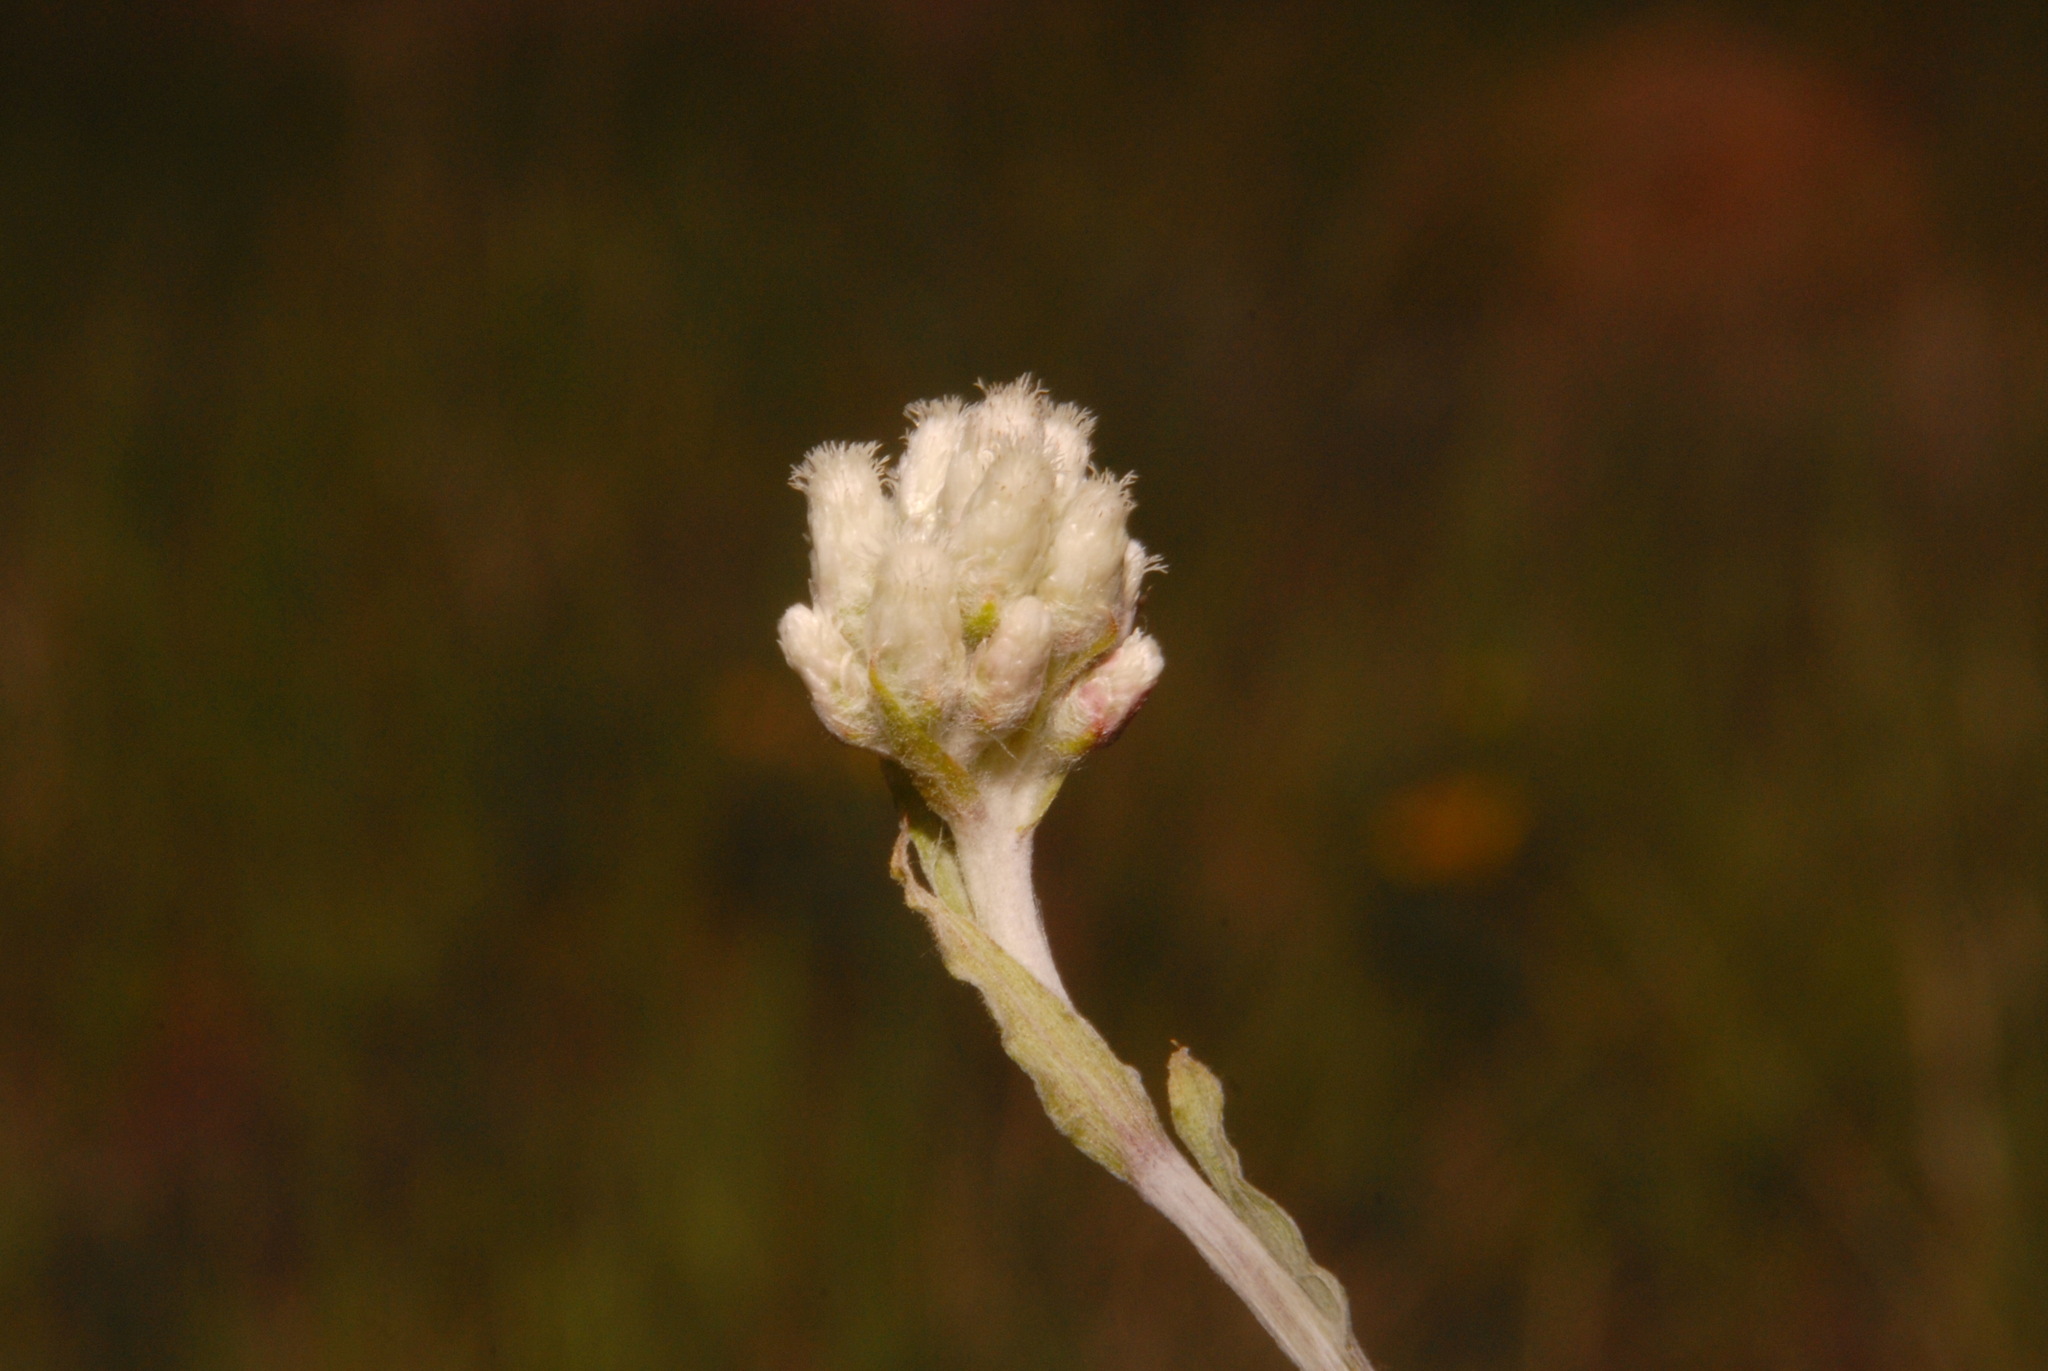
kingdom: Plantae
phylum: Tracheophyta
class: Magnoliopsida
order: Asterales
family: Asteraceae
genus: Antennaria
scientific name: Antennaria rosea
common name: Rosy pussytoes
